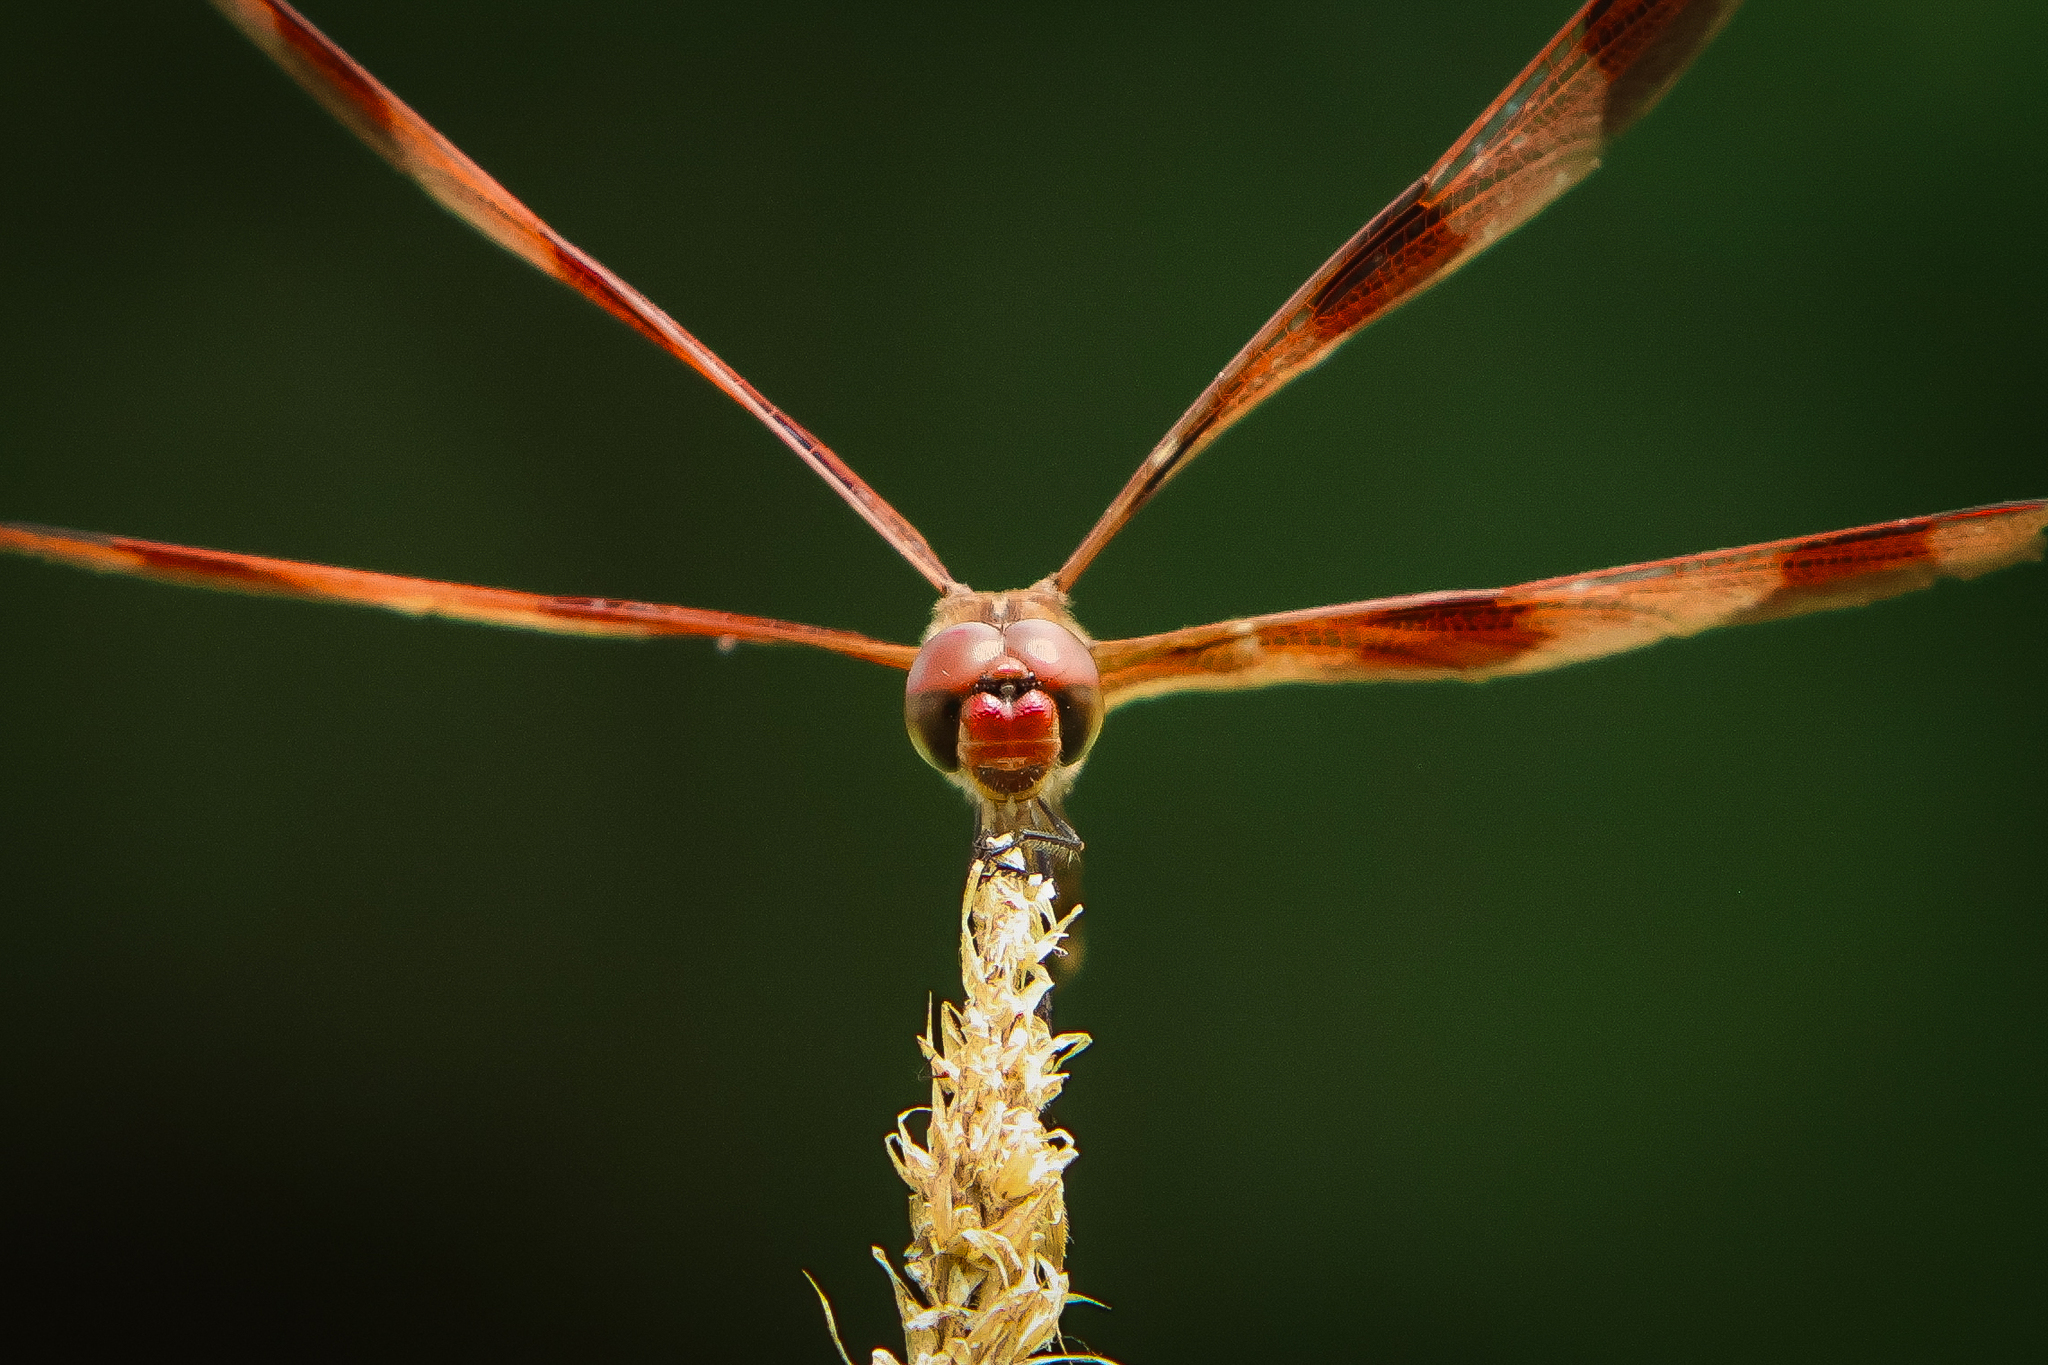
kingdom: Animalia
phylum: Arthropoda
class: Insecta
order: Odonata
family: Libellulidae
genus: Celithemis
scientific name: Celithemis eponina
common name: Halloween pennant
